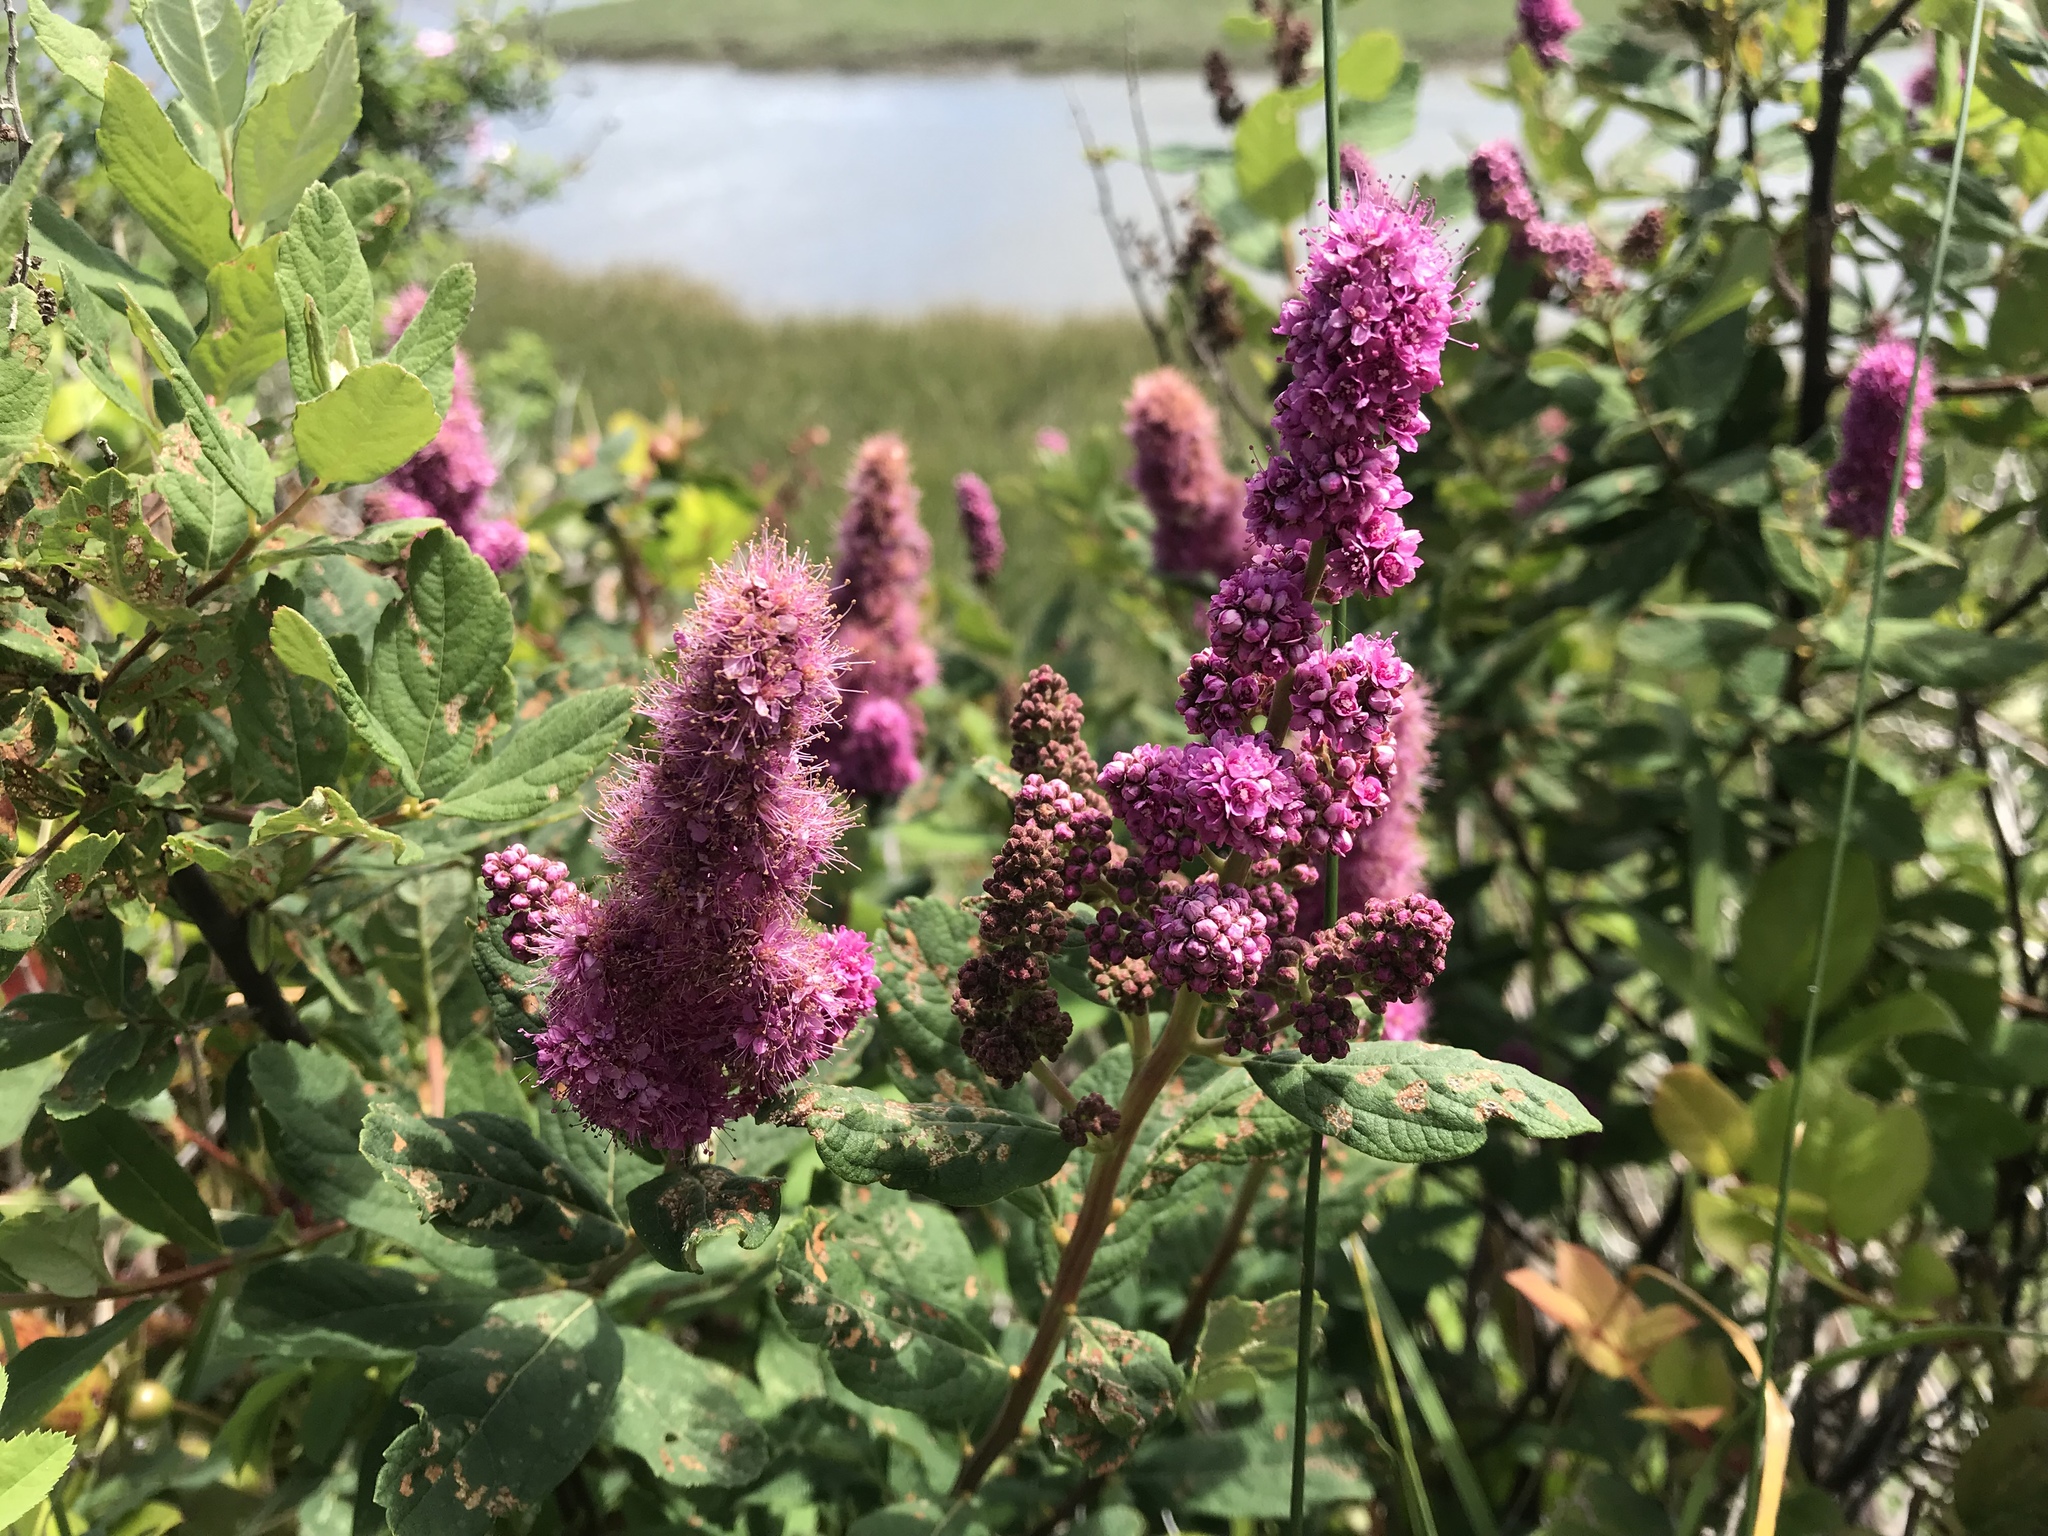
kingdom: Plantae
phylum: Tracheophyta
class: Magnoliopsida
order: Rosales
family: Rosaceae
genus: Spiraea
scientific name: Spiraea douglasii
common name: Steeplebush
